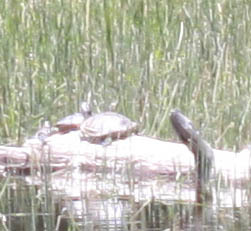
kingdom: Animalia
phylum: Chordata
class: Testudines
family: Emydidae
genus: Trachemys
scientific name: Trachemys scripta
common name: Slider
